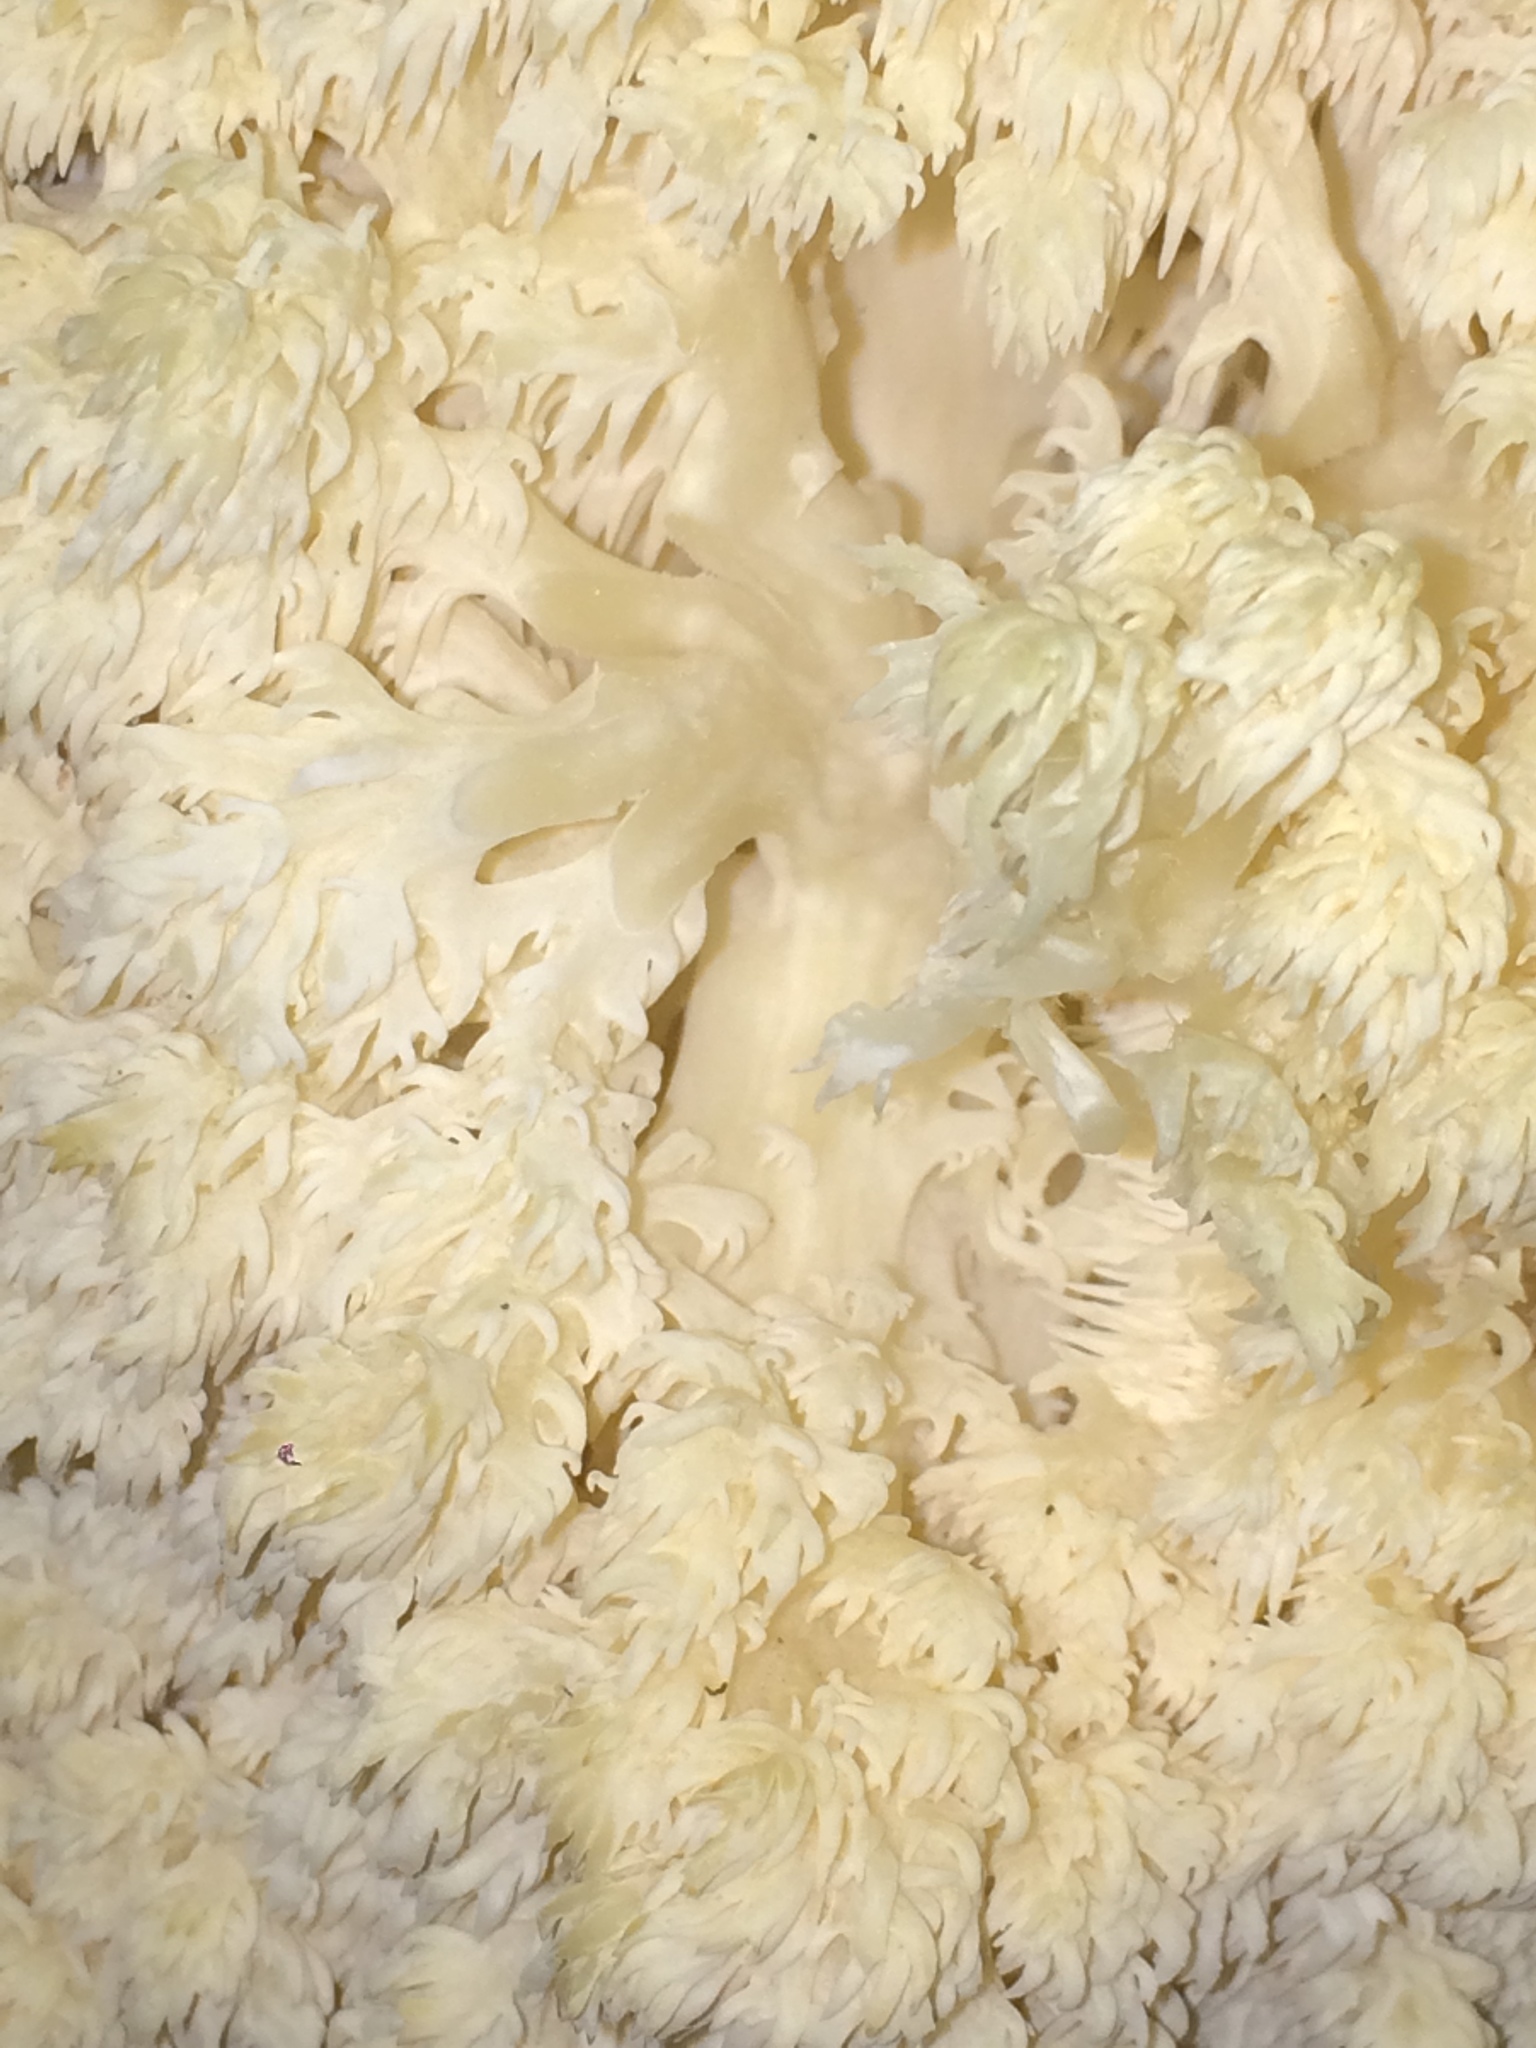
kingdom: Fungi
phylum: Basidiomycota
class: Agaricomycetes
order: Russulales
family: Hericiaceae
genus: Hericium
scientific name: Hericium abietis
